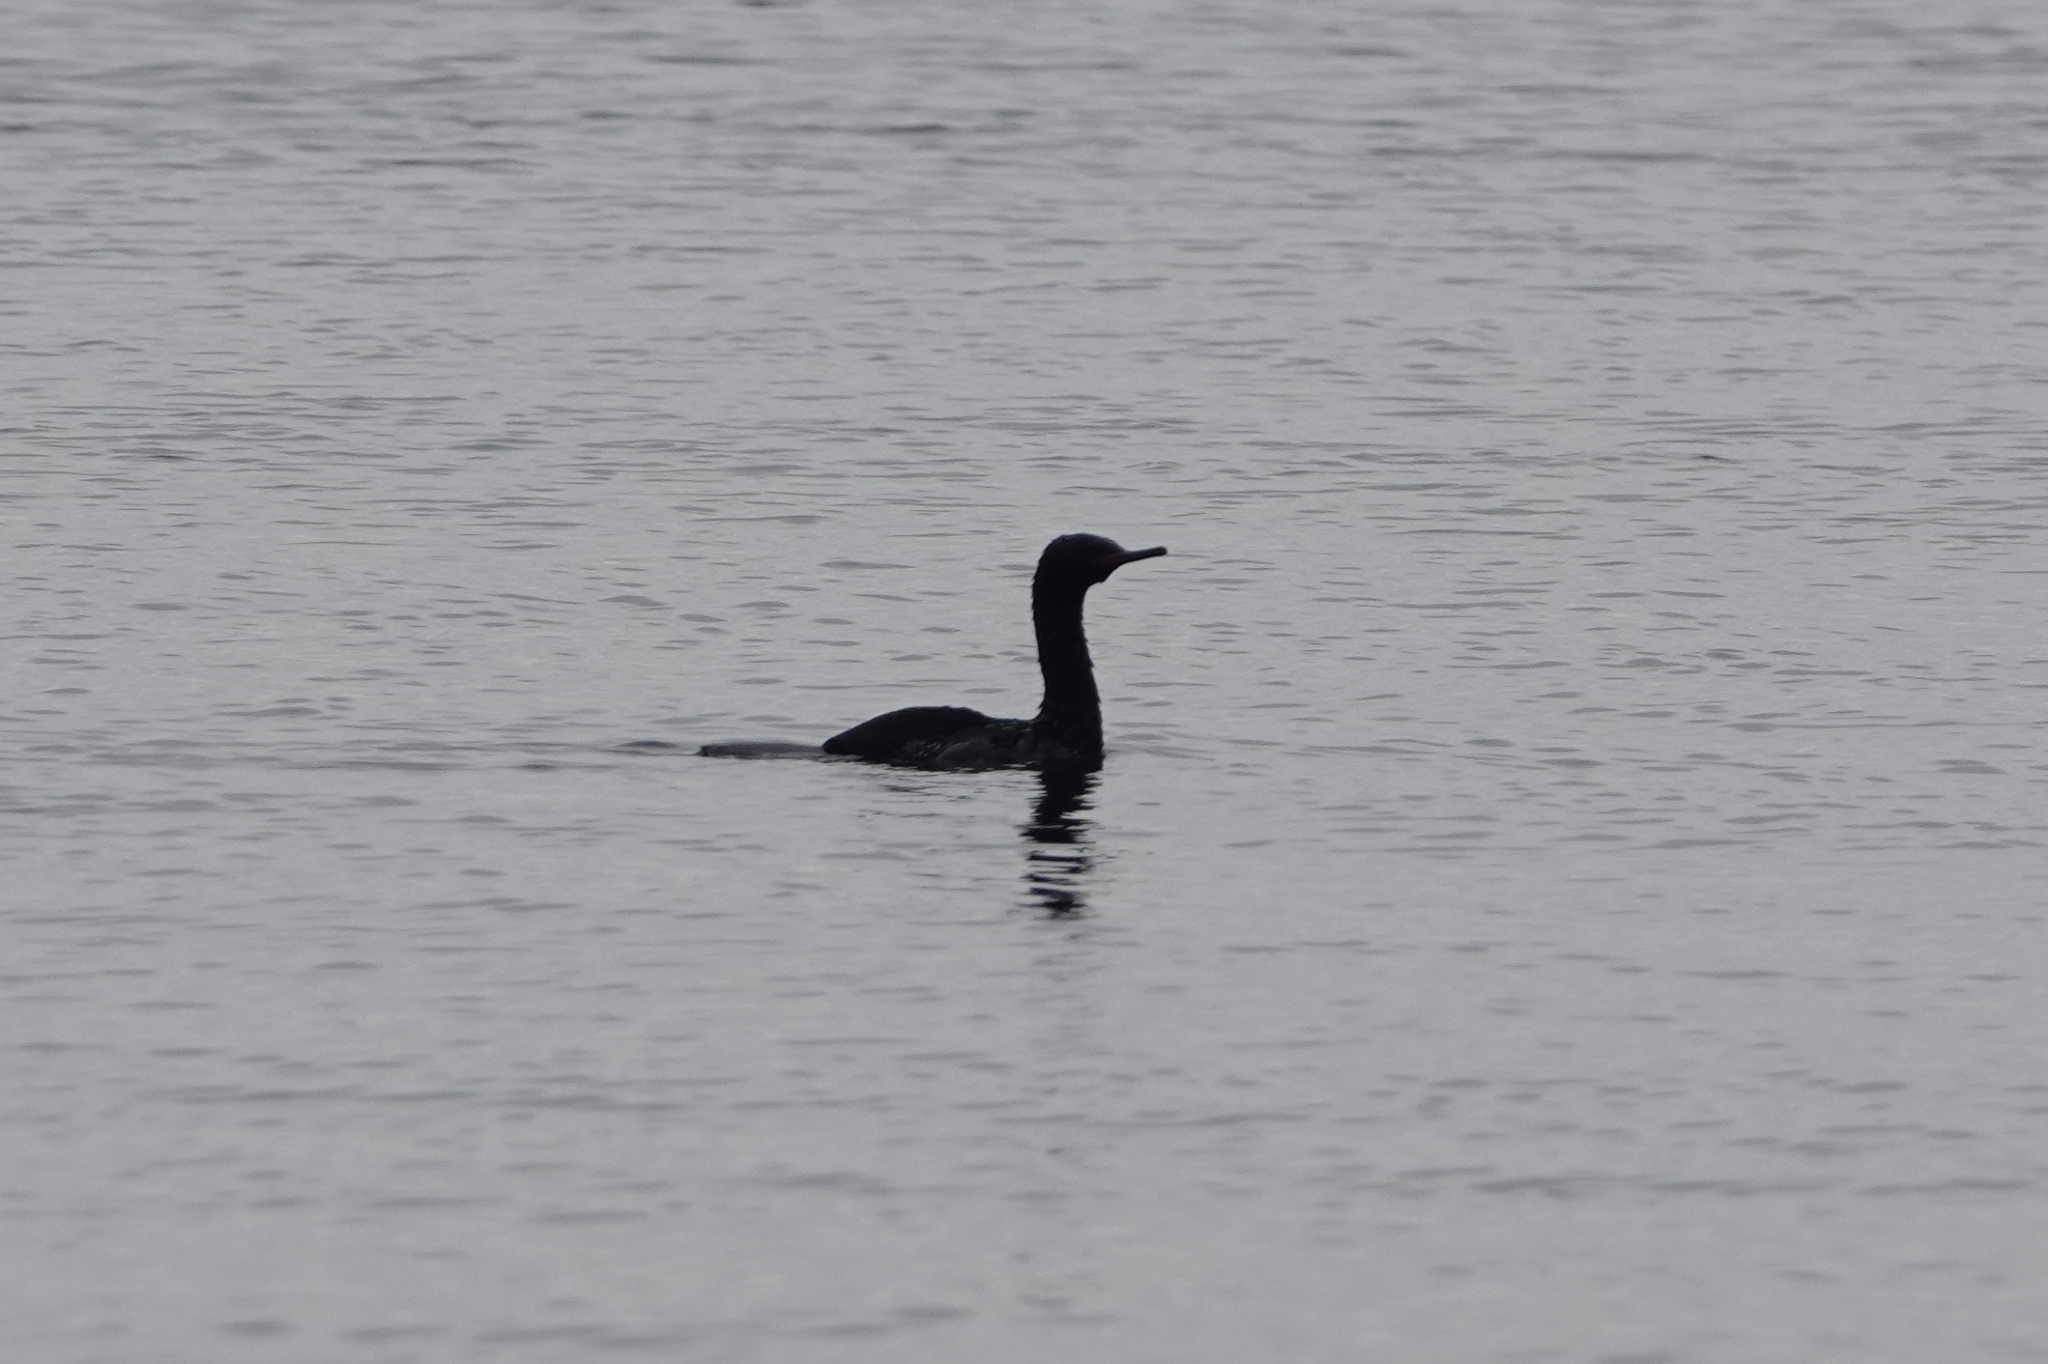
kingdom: Animalia
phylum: Chordata
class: Aves
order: Suliformes
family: Phalacrocoracidae
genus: Phalacrocorax
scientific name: Phalacrocorax pelagicus
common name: Pelagic cormorant
